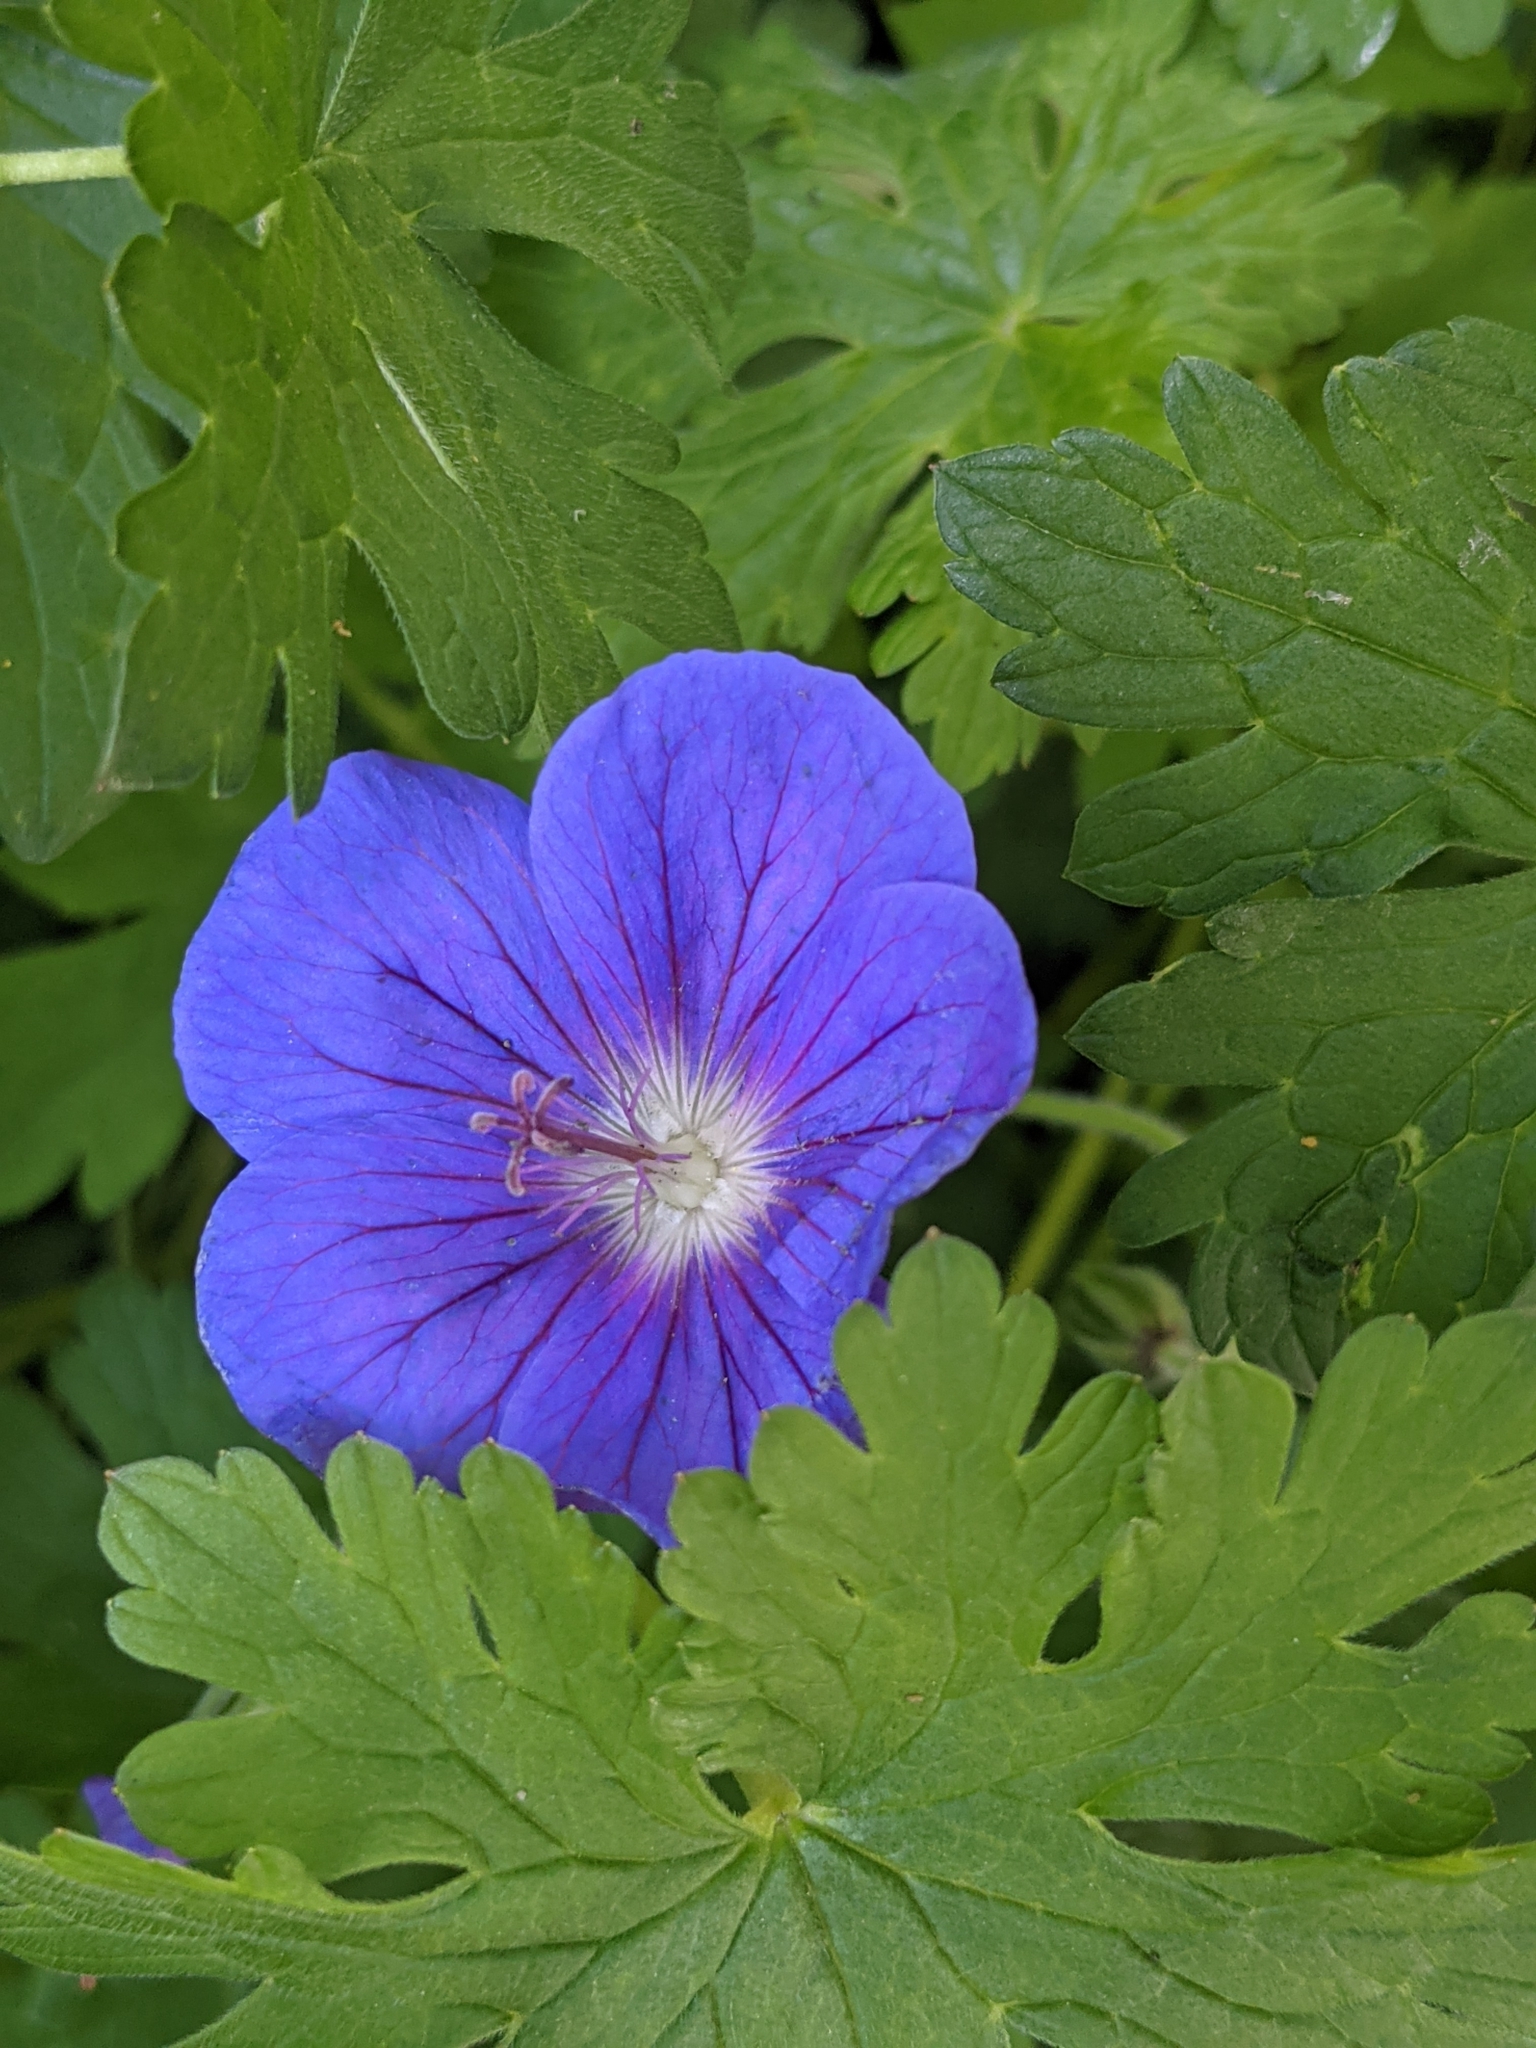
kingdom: Plantae
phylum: Tracheophyta
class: Magnoliopsida
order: Geraniales
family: Geraniaceae
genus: Geranium
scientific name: Geranium pratense
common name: Meadow crane's-bill
